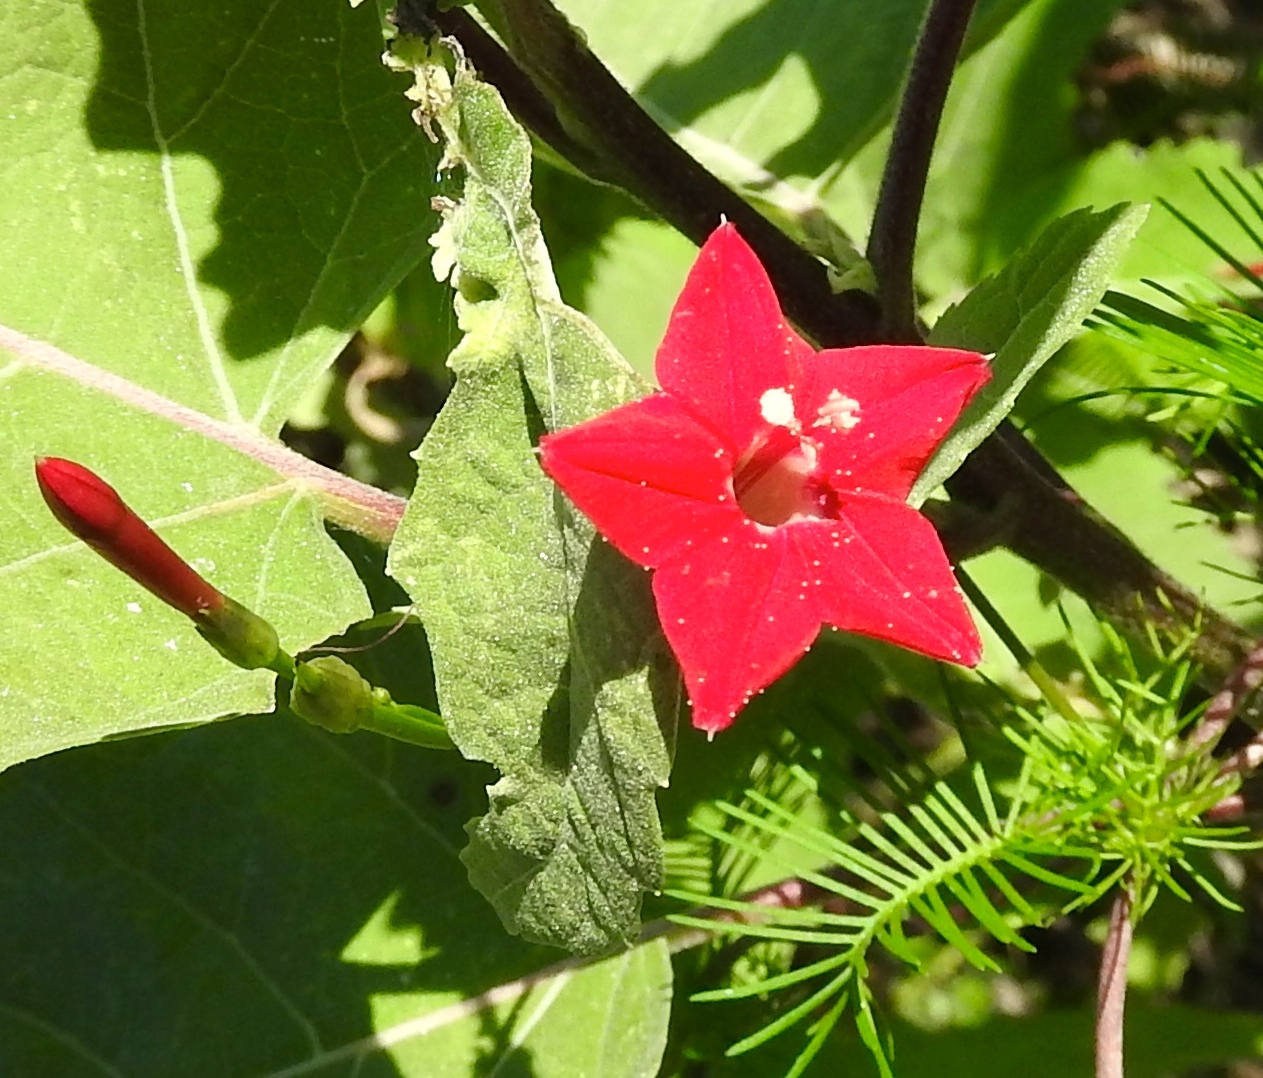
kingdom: Plantae
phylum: Tracheophyta
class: Magnoliopsida
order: Solanales
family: Convolvulaceae
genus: Ipomoea
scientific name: Ipomoea quamoclit
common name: Cypress vine
